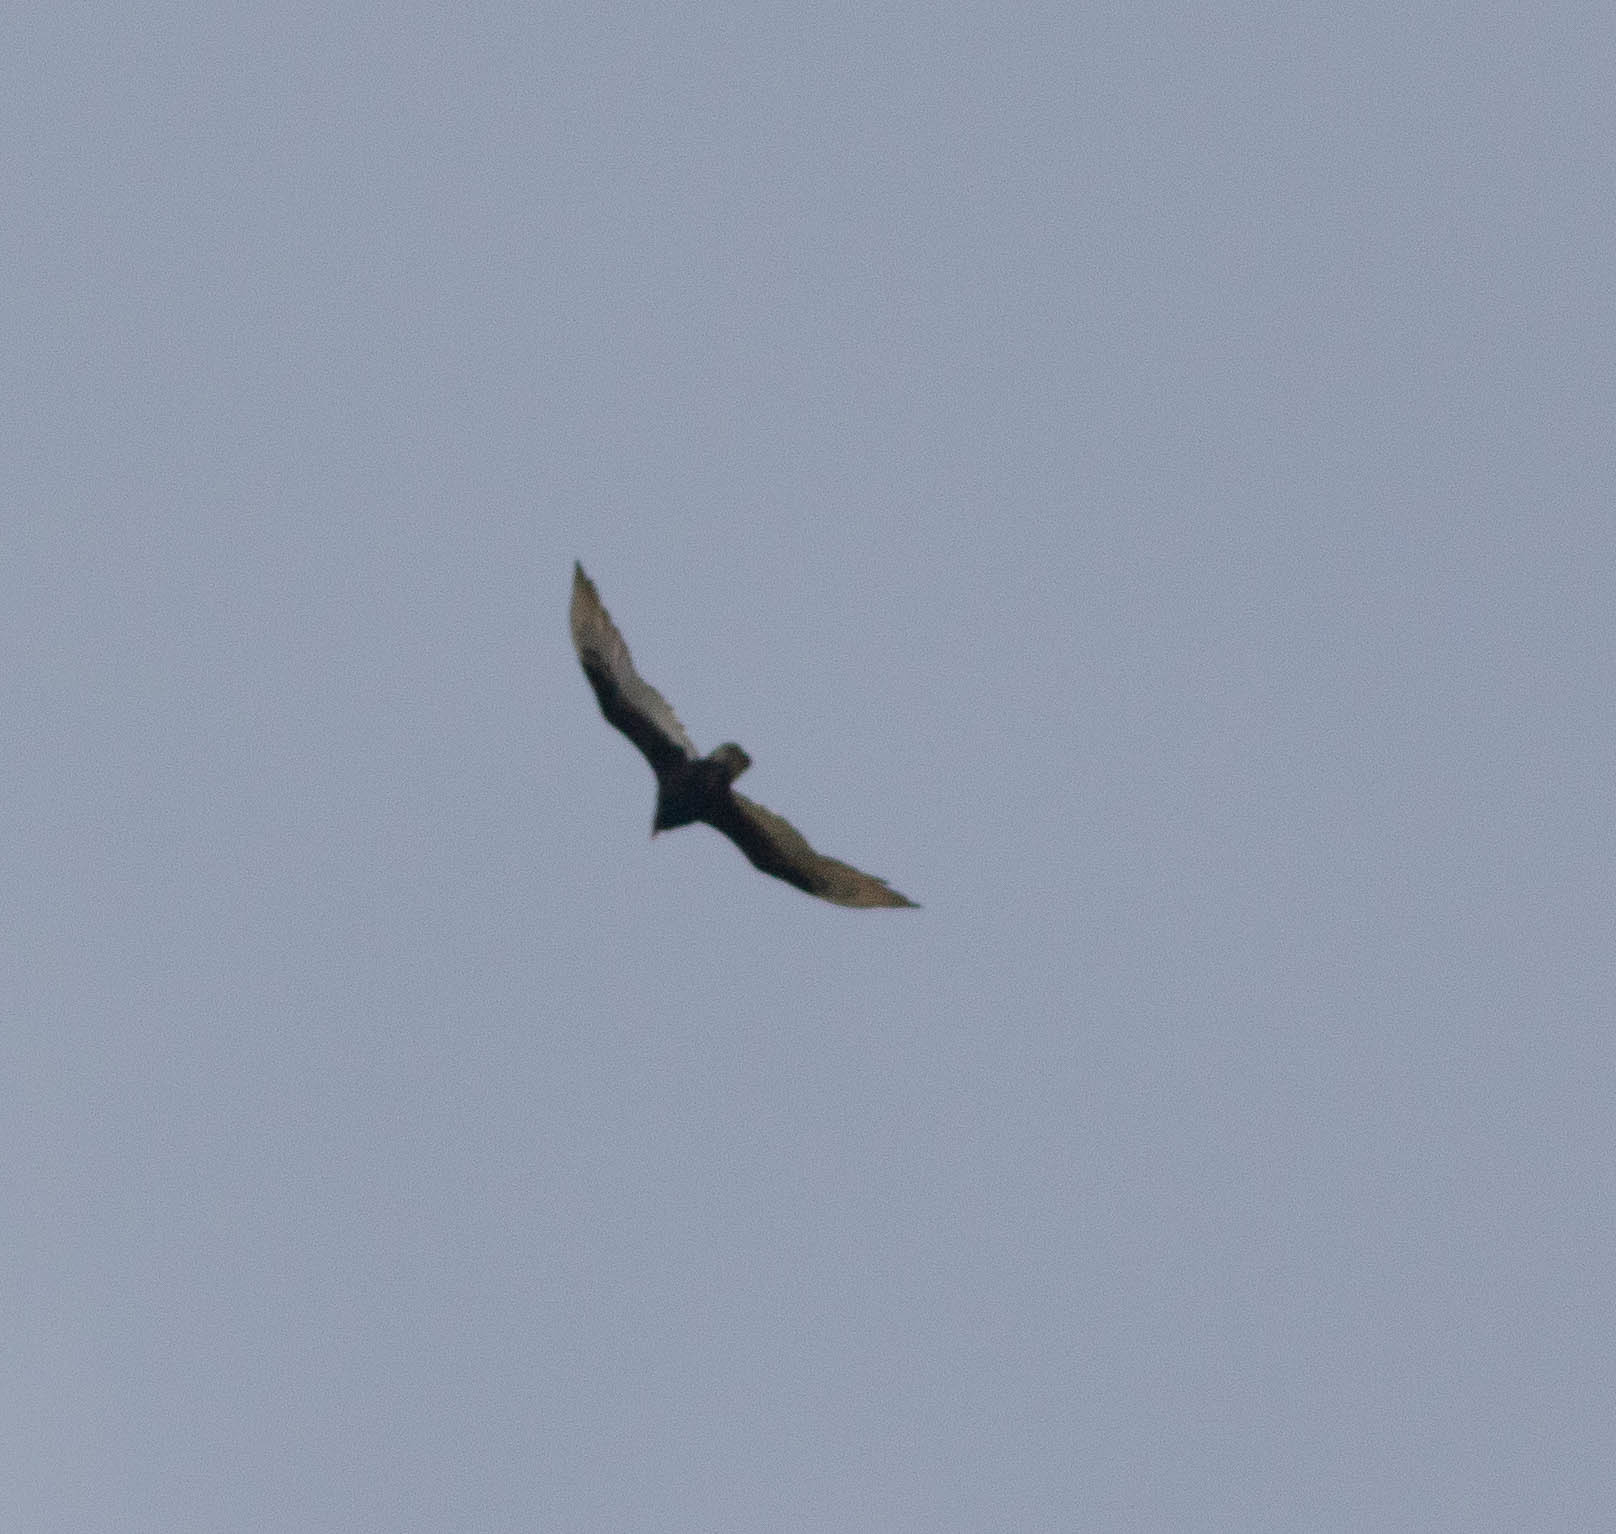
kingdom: Animalia
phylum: Chordata
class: Aves
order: Accipitriformes
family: Cathartidae
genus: Cathartes
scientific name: Cathartes aura
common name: Turkey vulture
